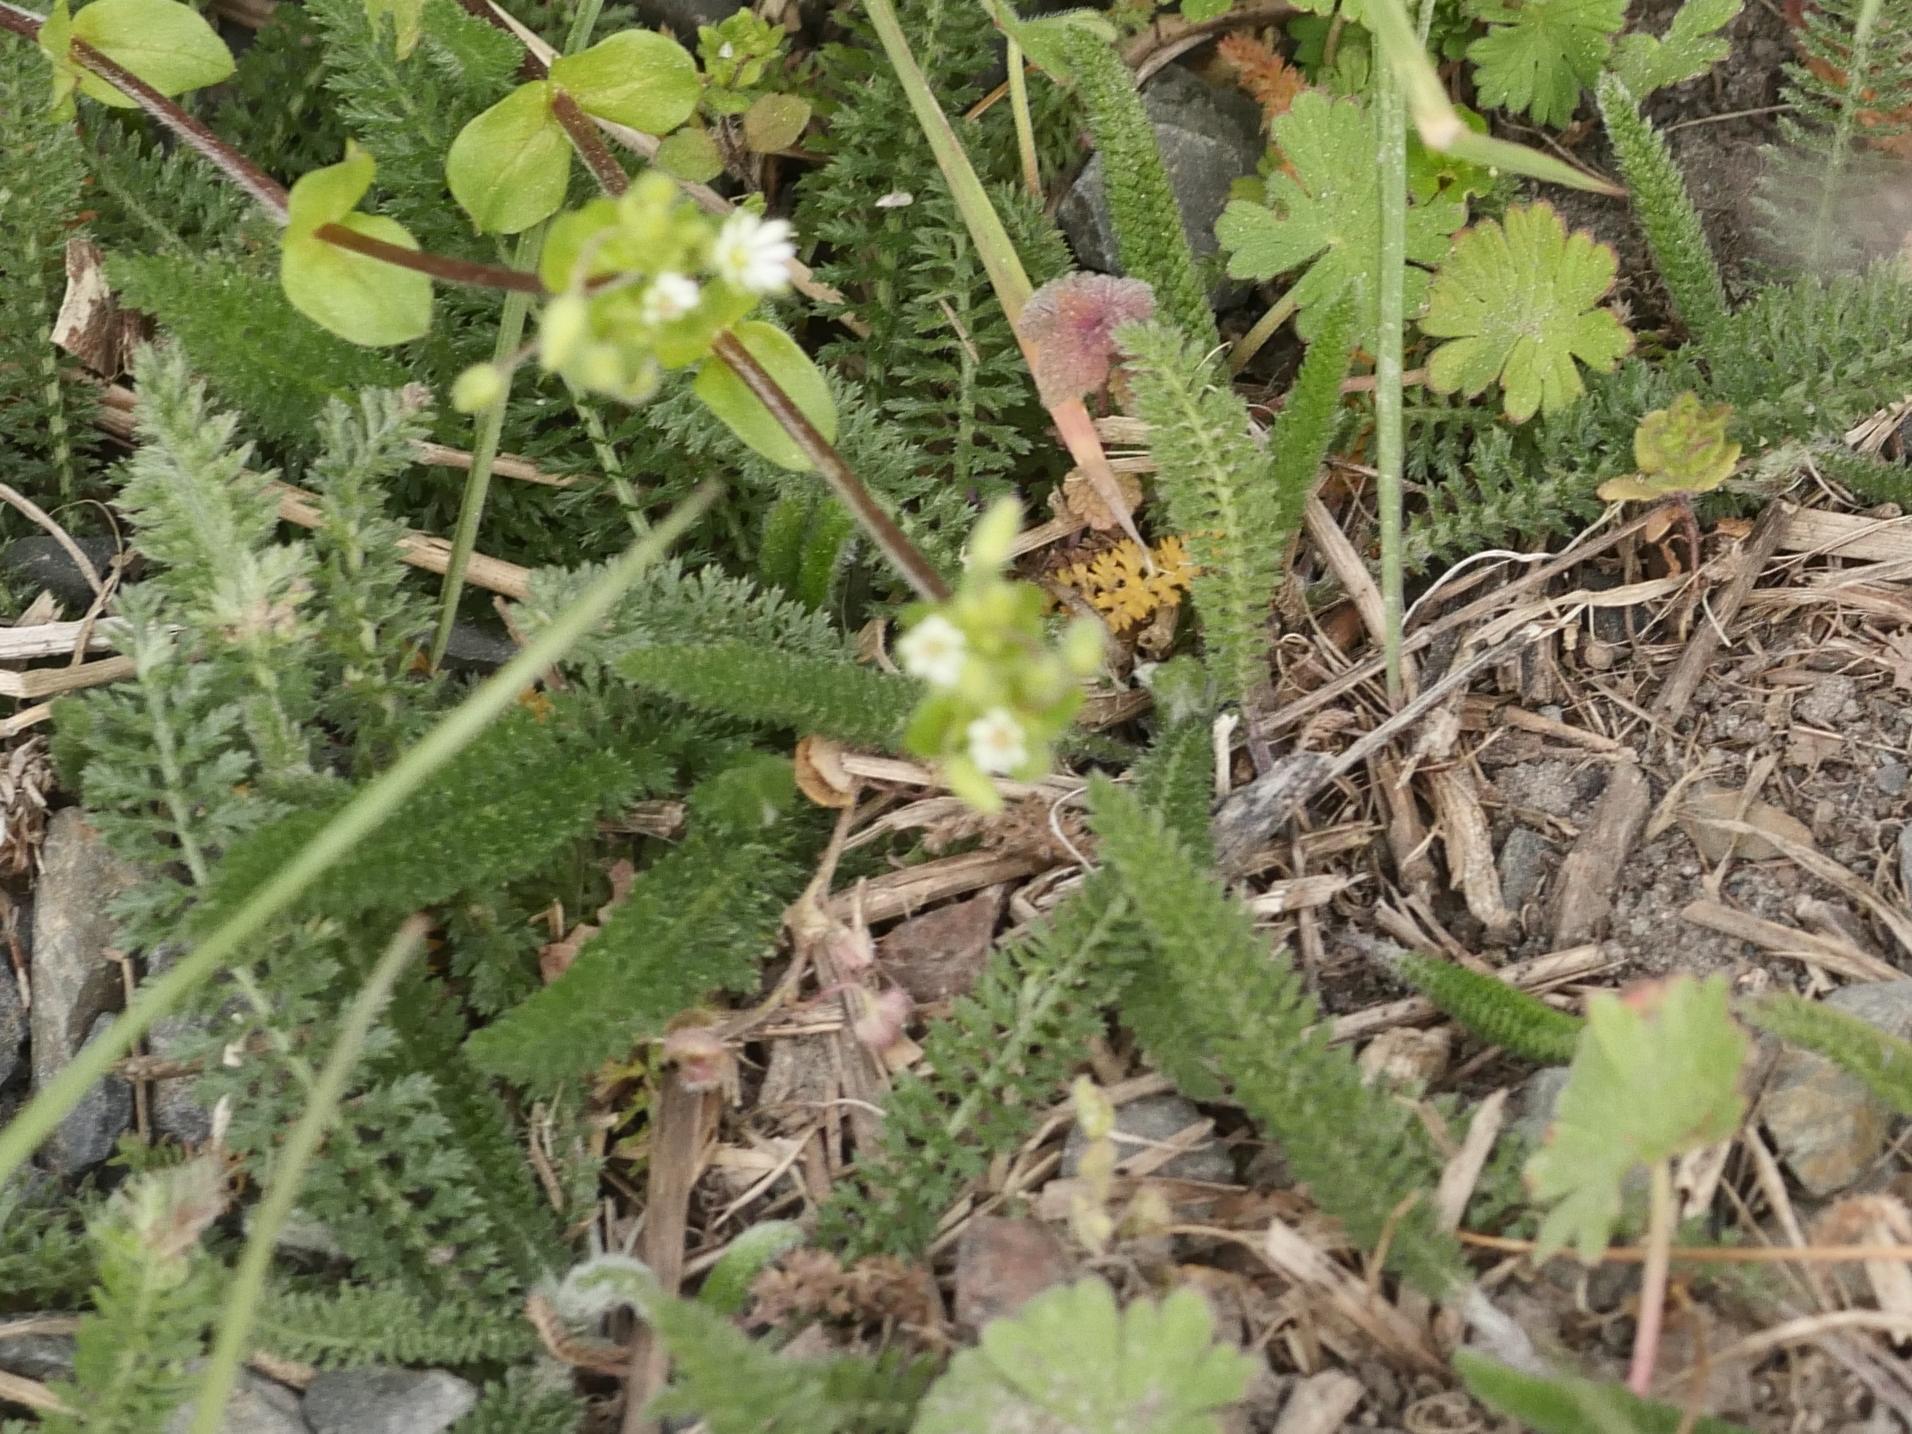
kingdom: Plantae
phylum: Tracheophyta
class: Magnoliopsida
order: Asterales
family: Asteraceae
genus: Achillea
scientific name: Achillea millefolium
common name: Yarrow
